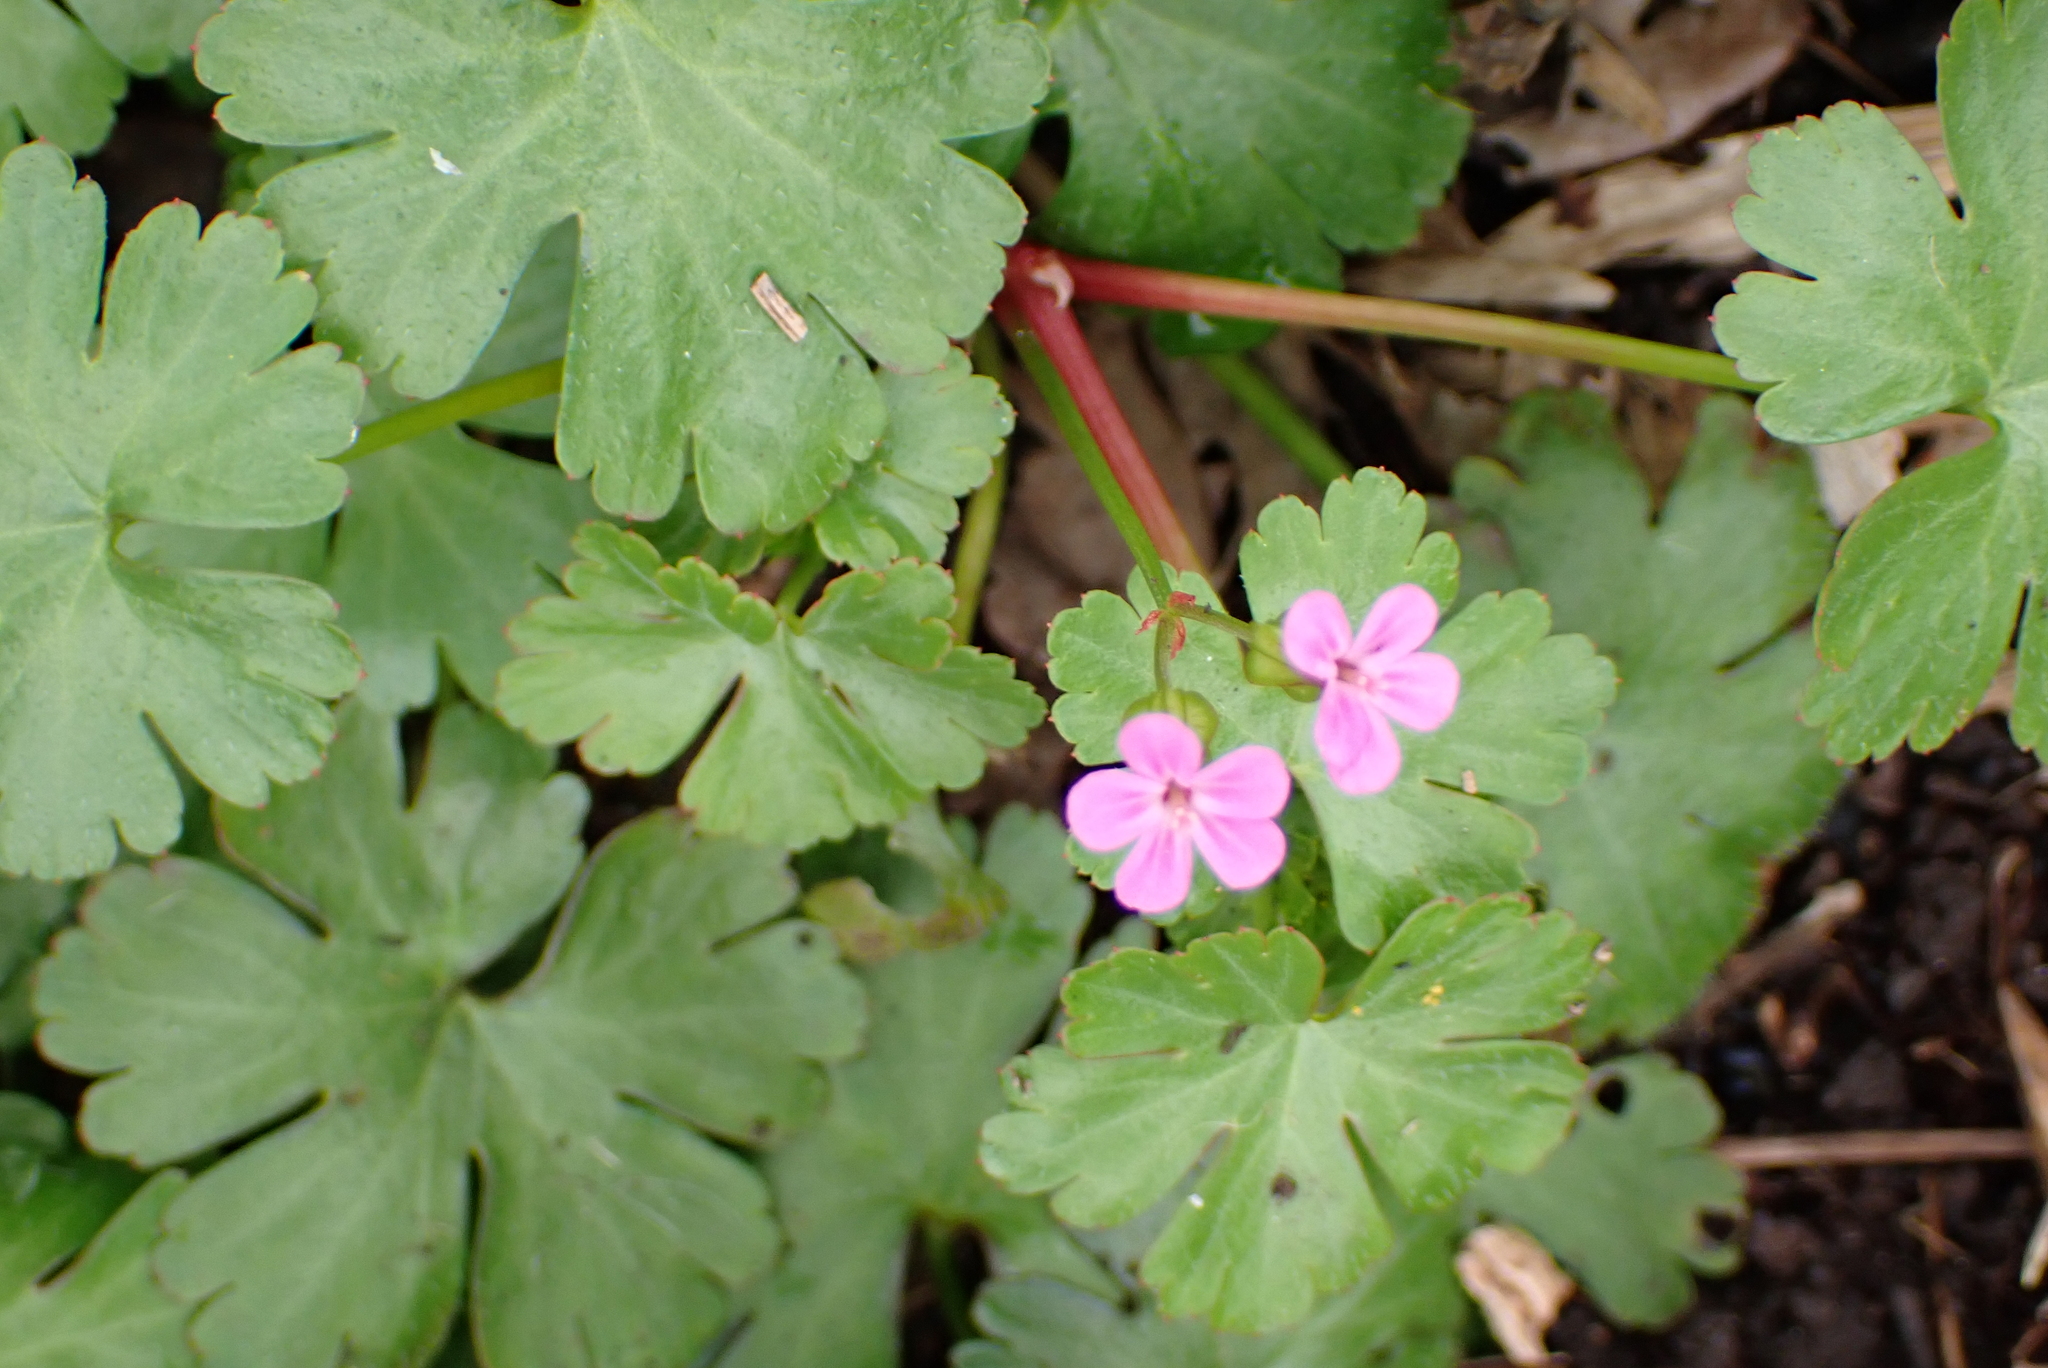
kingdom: Plantae
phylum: Tracheophyta
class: Magnoliopsida
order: Geraniales
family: Geraniaceae
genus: Geranium
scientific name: Geranium lucidum
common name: Shining crane's-bill
